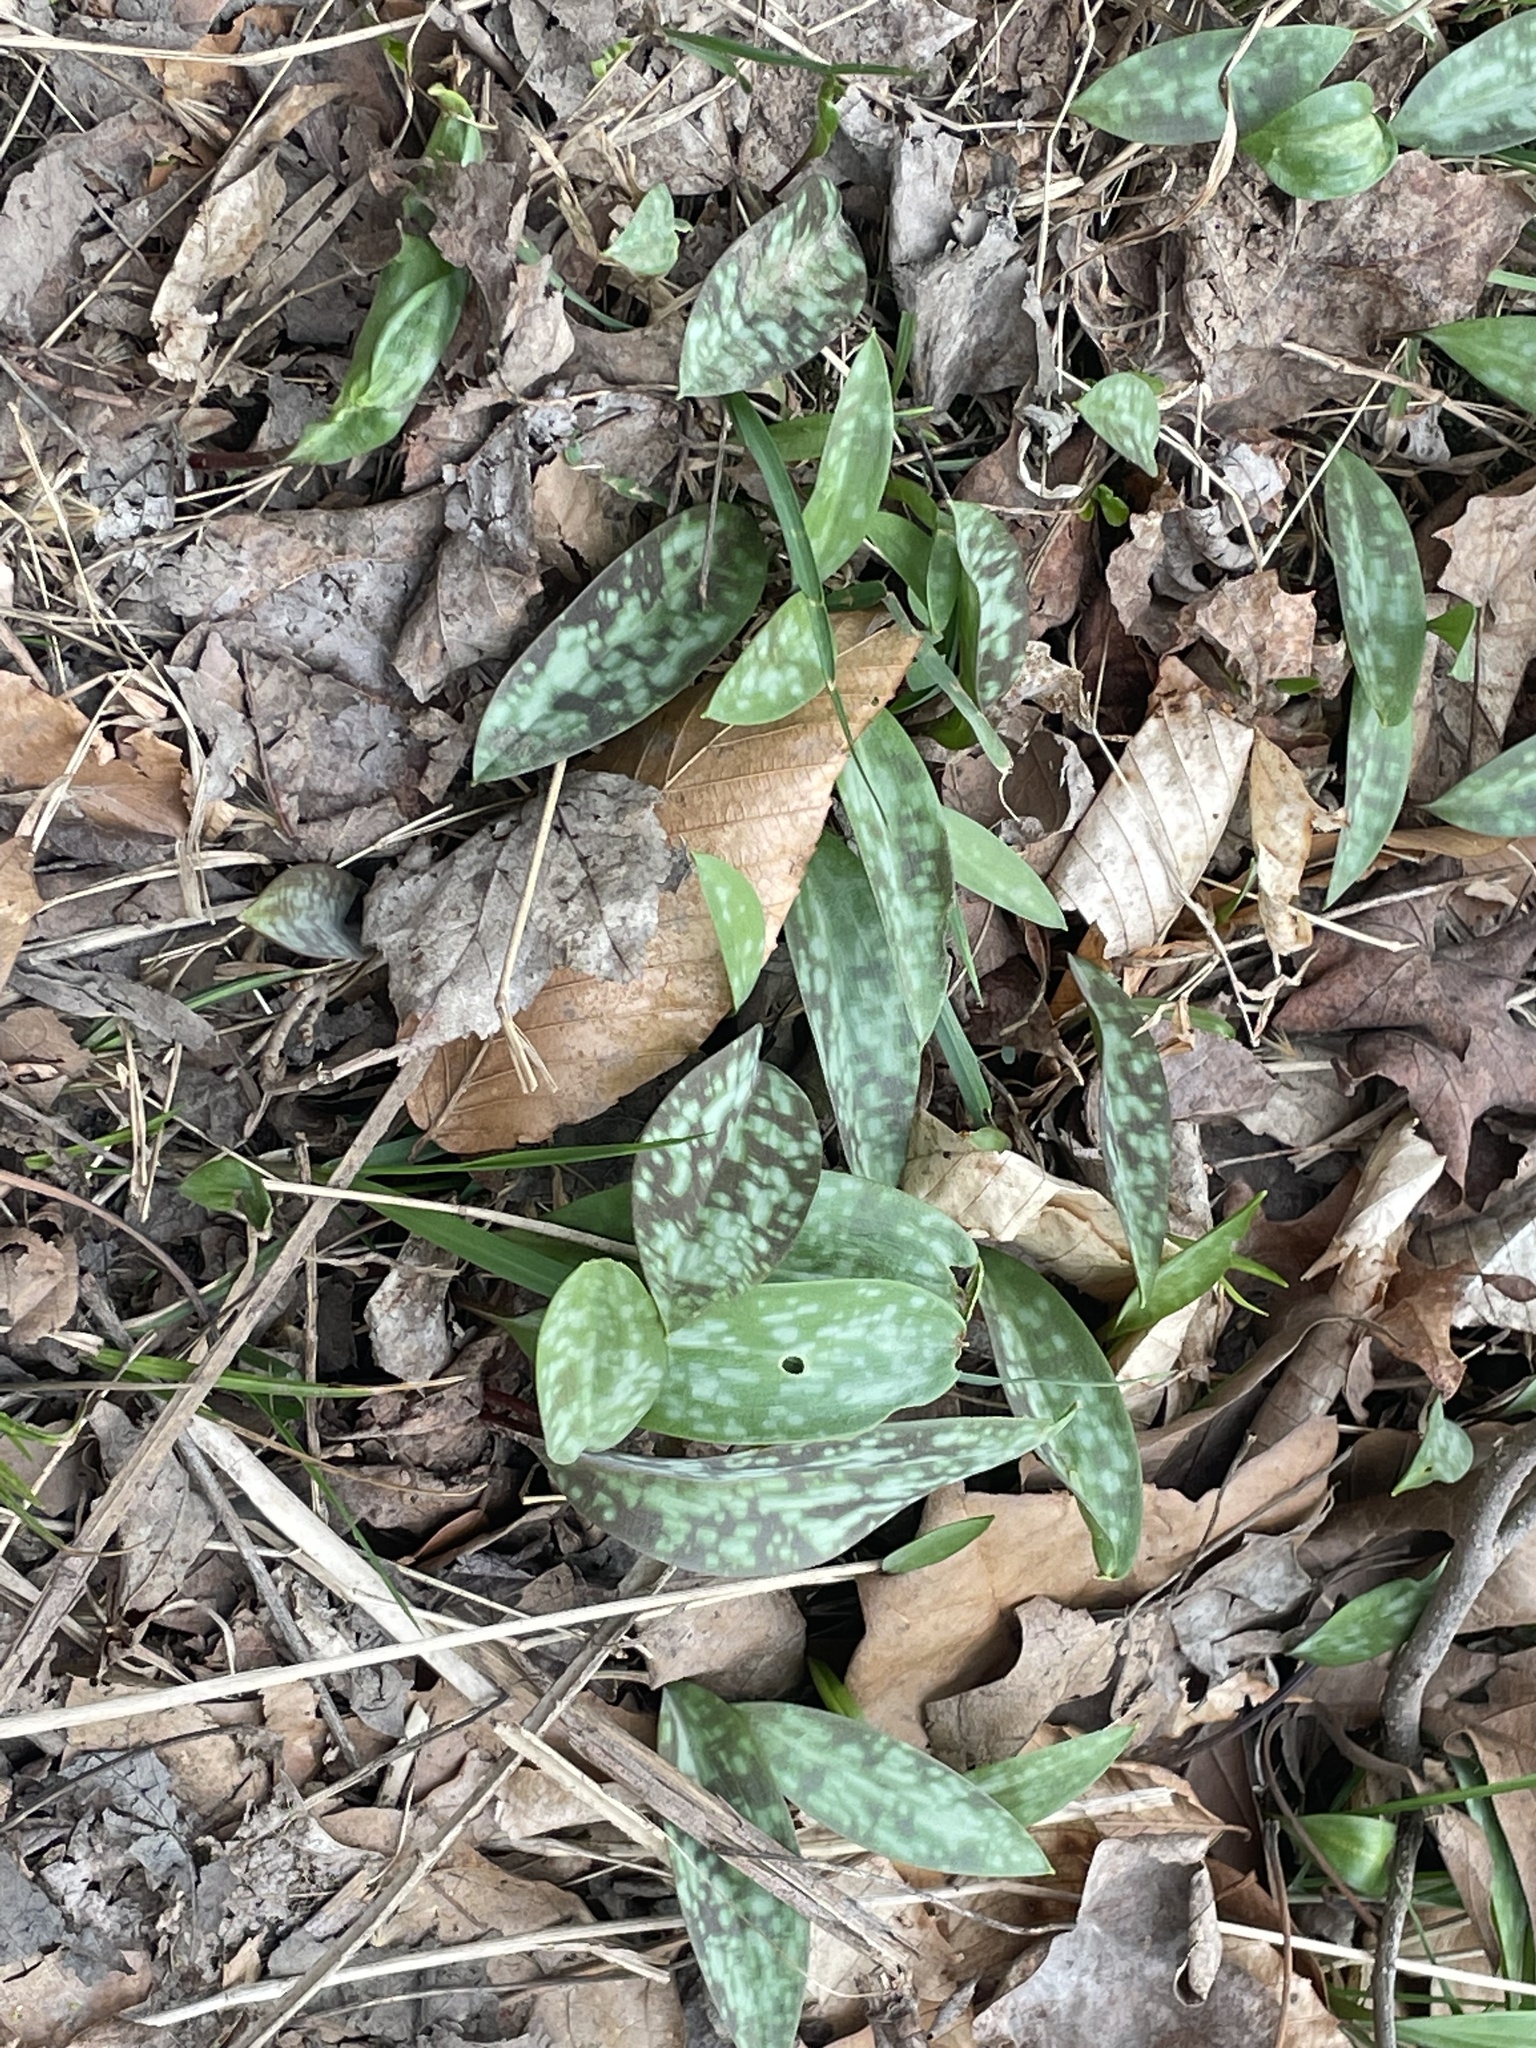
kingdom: Plantae
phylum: Tracheophyta
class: Liliopsida
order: Liliales
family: Liliaceae
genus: Erythronium
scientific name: Erythronium americanum
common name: Yellow adder's-tongue
